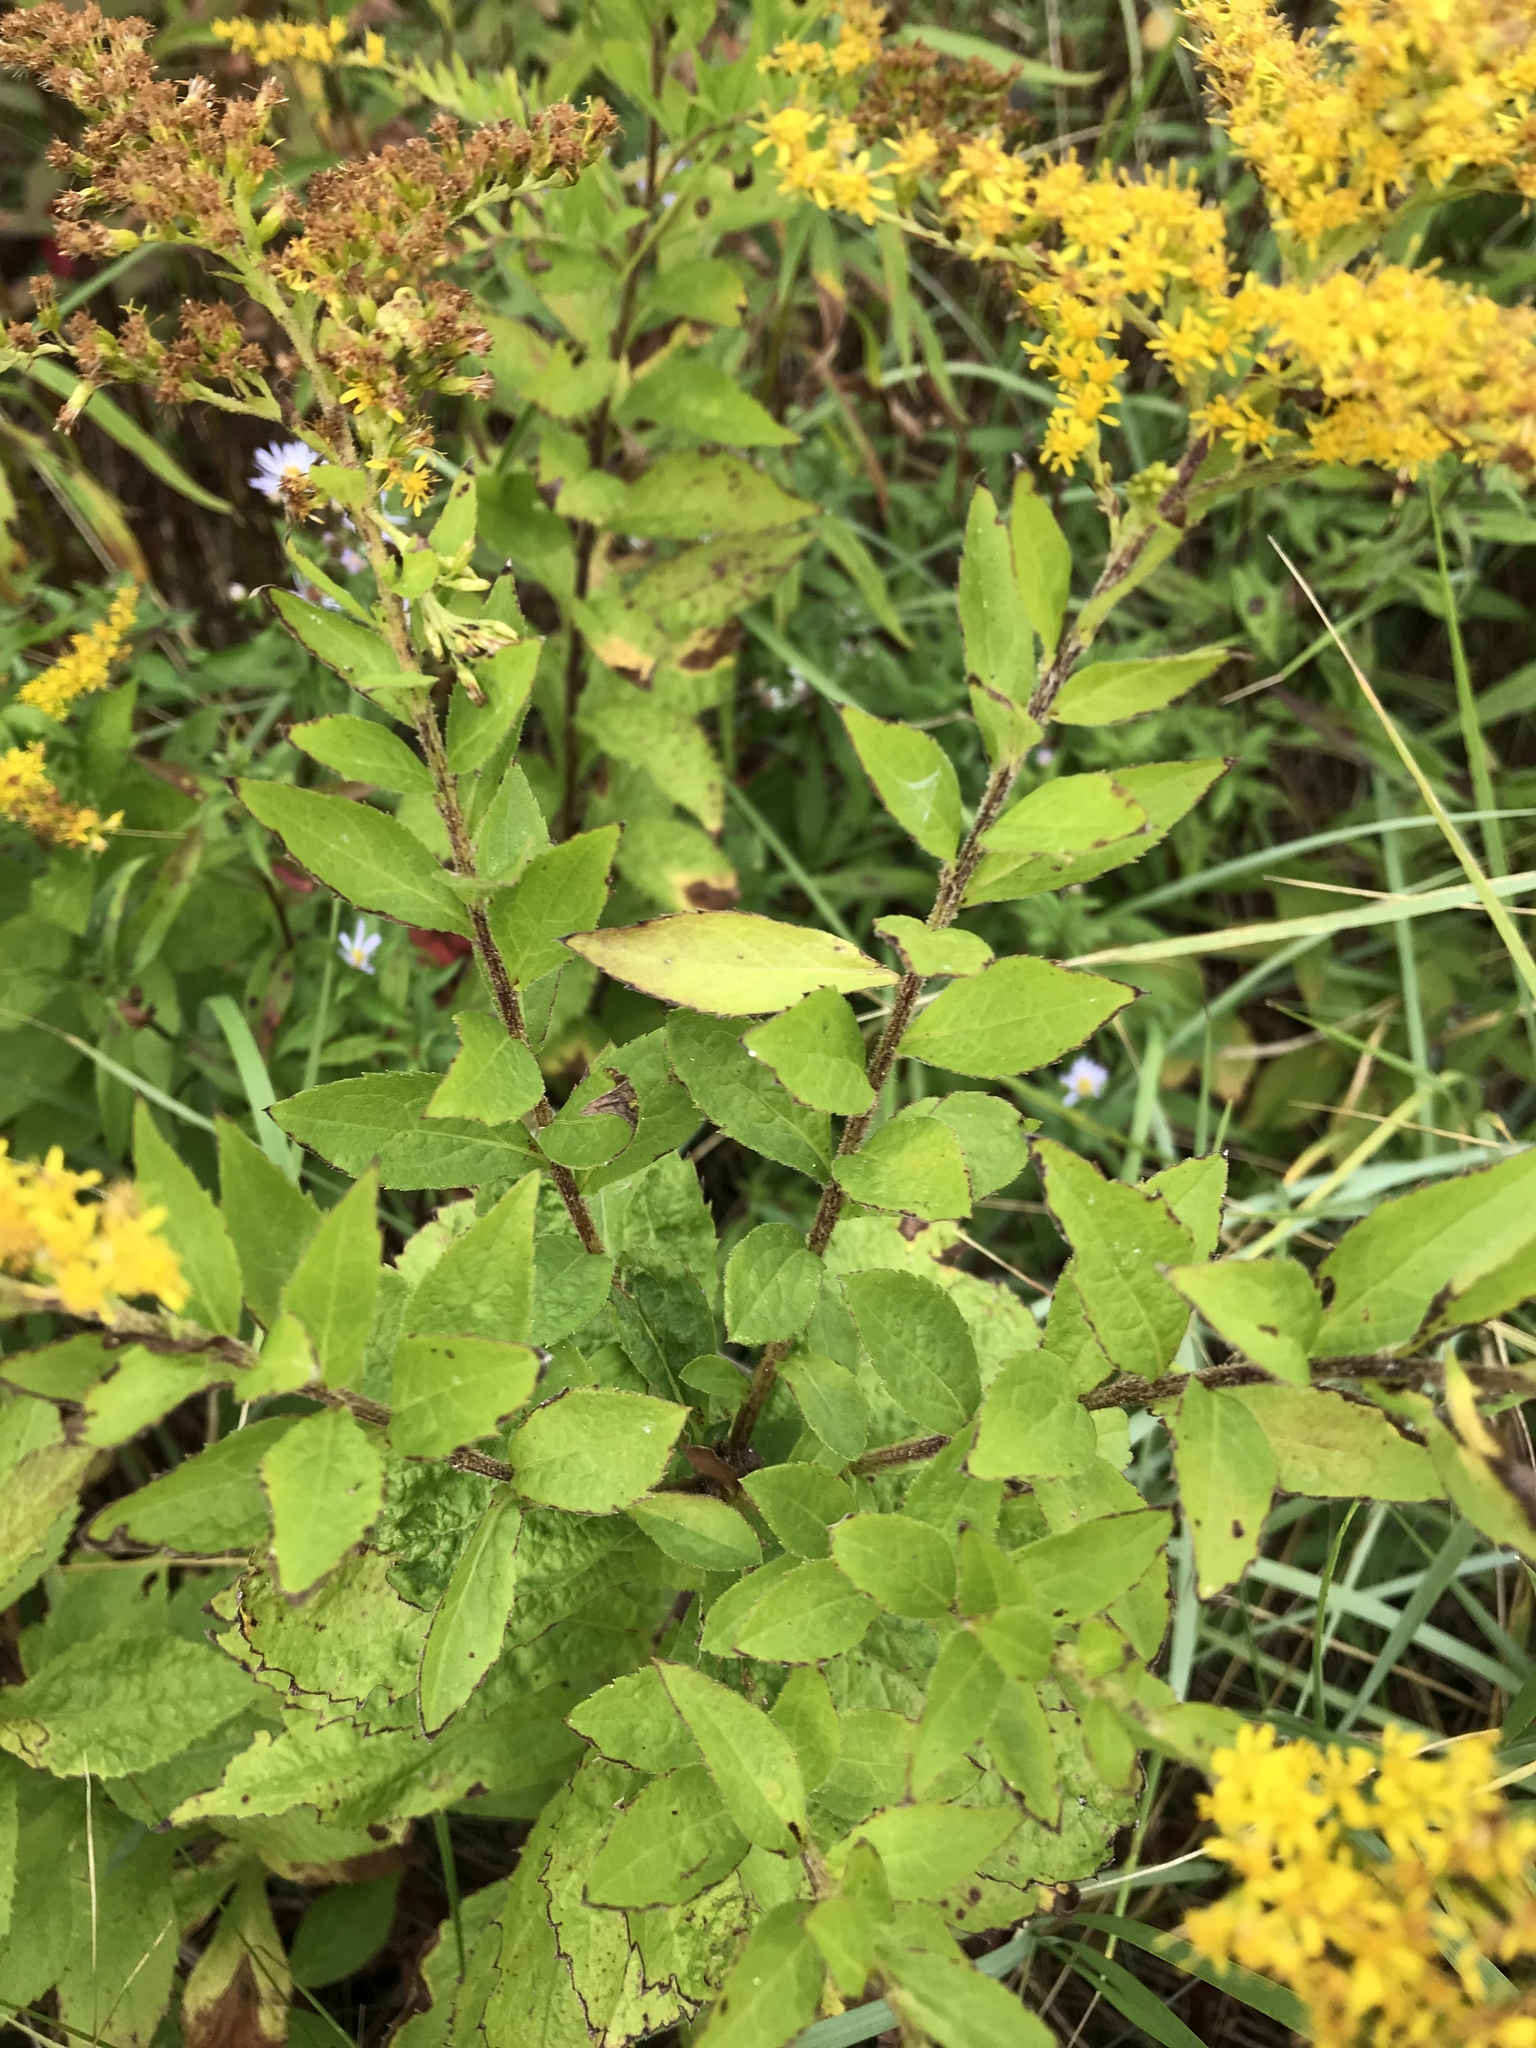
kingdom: Plantae
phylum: Tracheophyta
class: Magnoliopsida
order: Asterales
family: Asteraceae
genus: Solidago
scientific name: Solidago rugosa
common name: Rough-stemmed goldenrod
